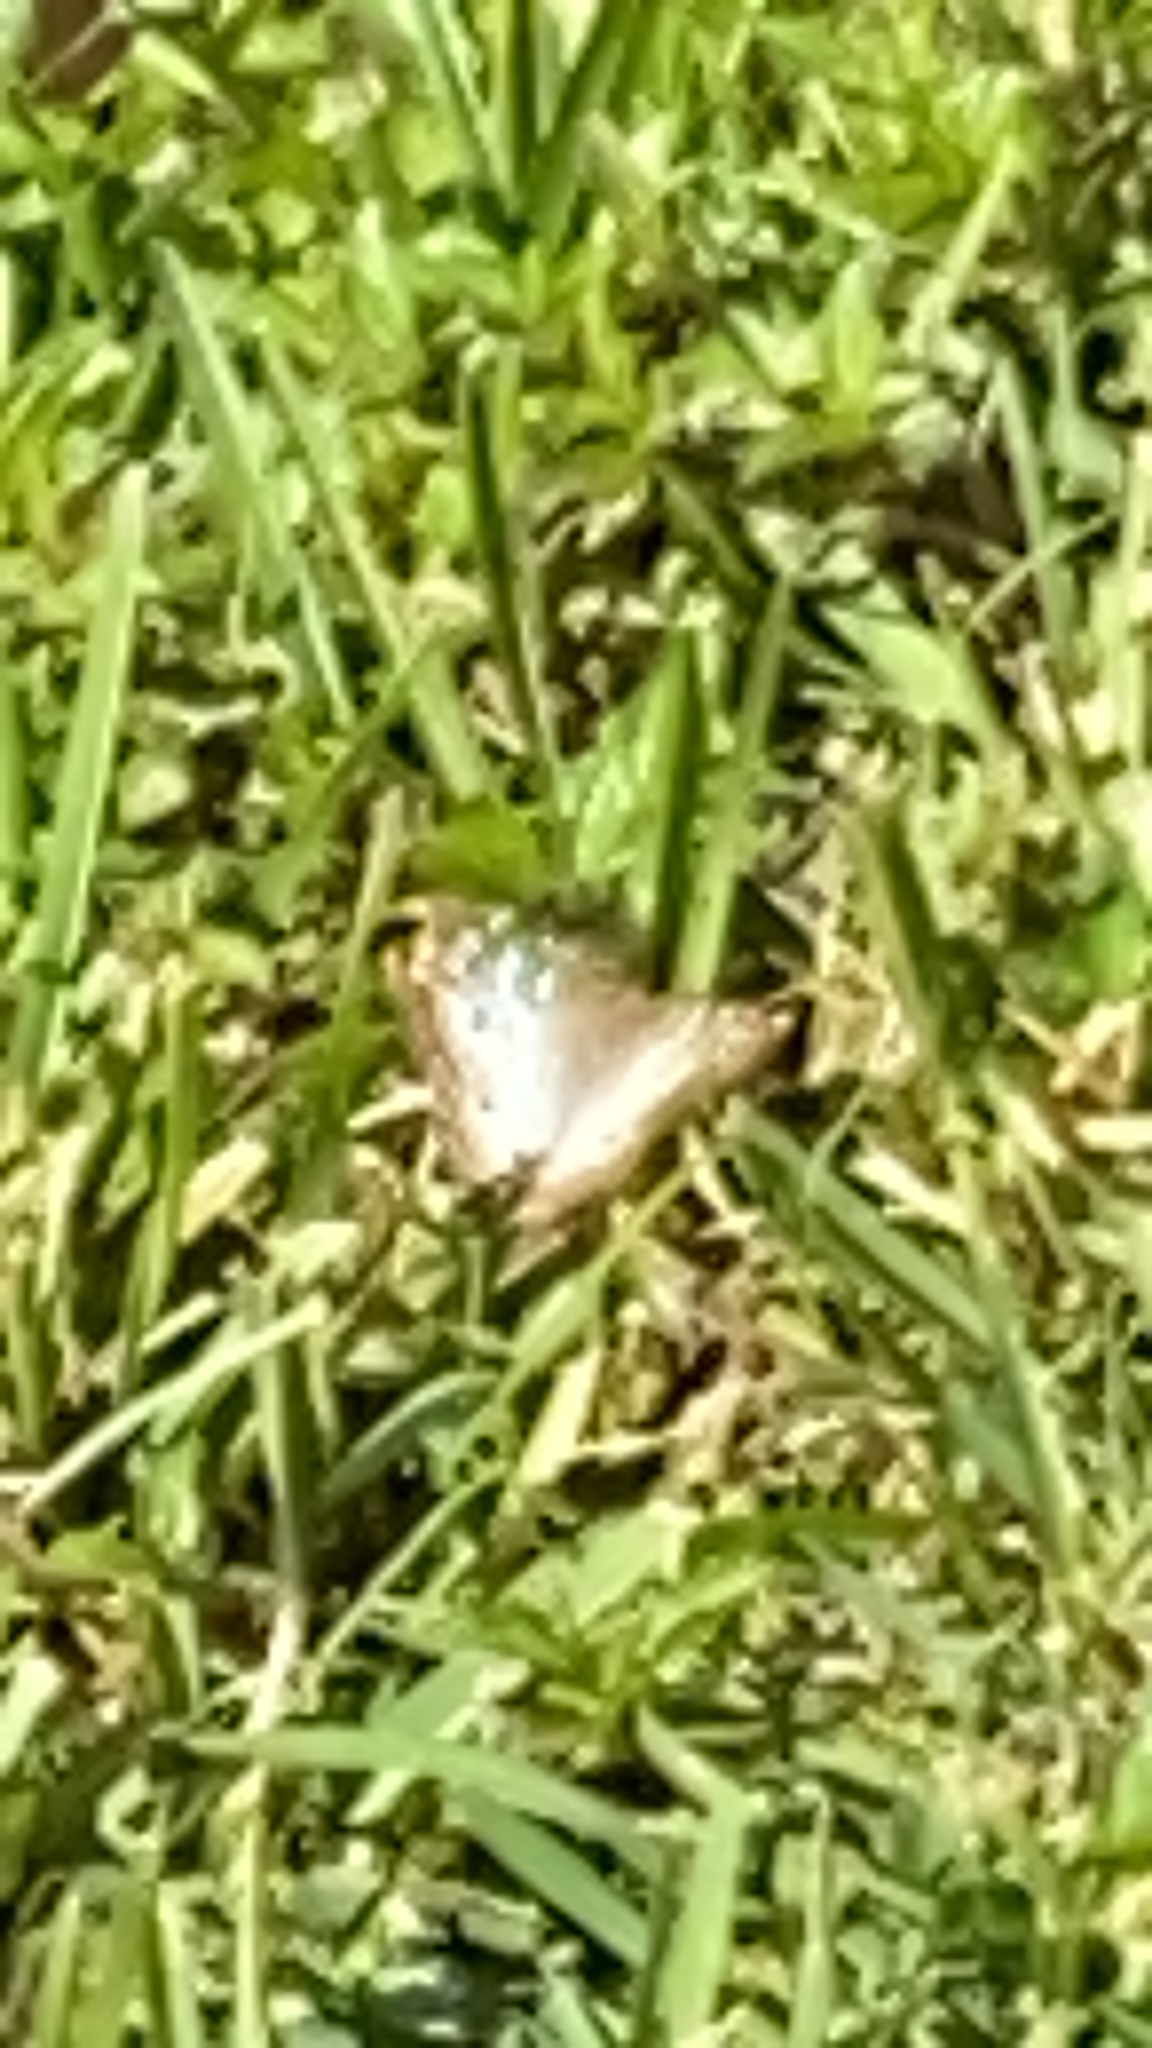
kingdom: Animalia
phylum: Arthropoda
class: Insecta
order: Lepidoptera
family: Nymphalidae
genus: Anartia
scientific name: Anartia jatrophae
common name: White peacock
